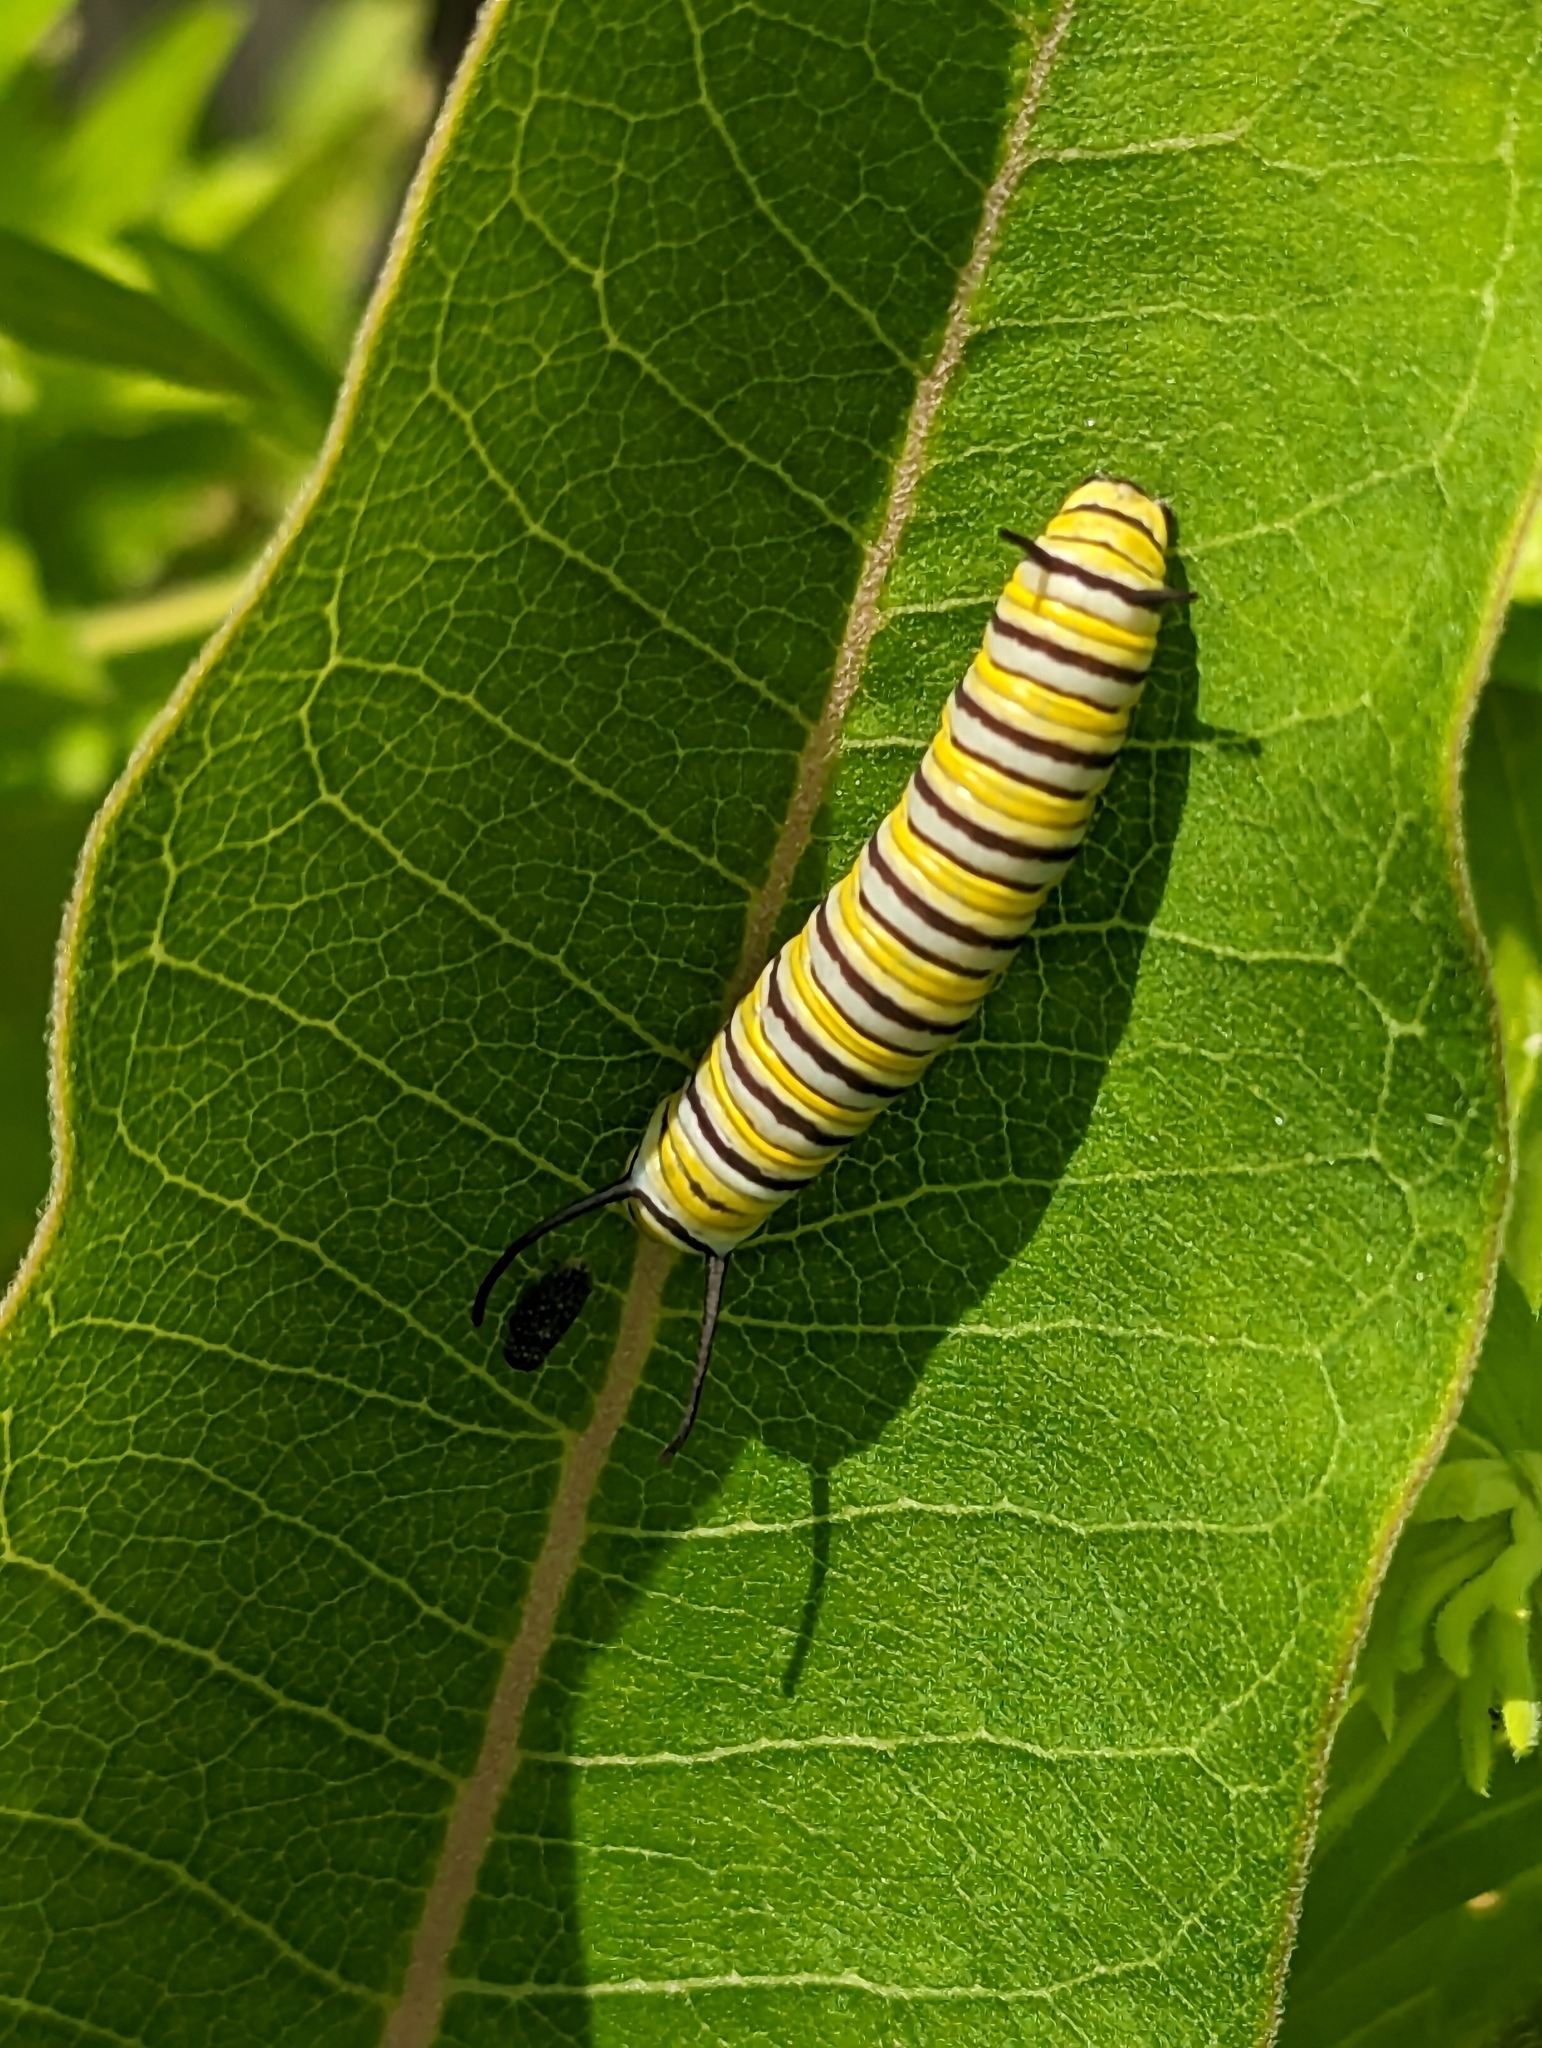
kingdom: Animalia
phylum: Arthropoda
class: Insecta
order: Lepidoptera
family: Nymphalidae
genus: Danaus
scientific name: Danaus plexippus
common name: Monarch
